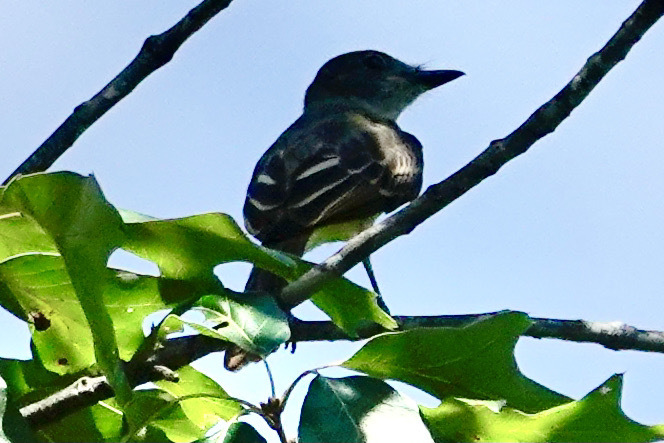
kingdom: Animalia
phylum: Chordata
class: Aves
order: Passeriformes
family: Tyrannidae
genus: Myiarchus
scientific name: Myiarchus crinitus
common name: Great crested flycatcher
